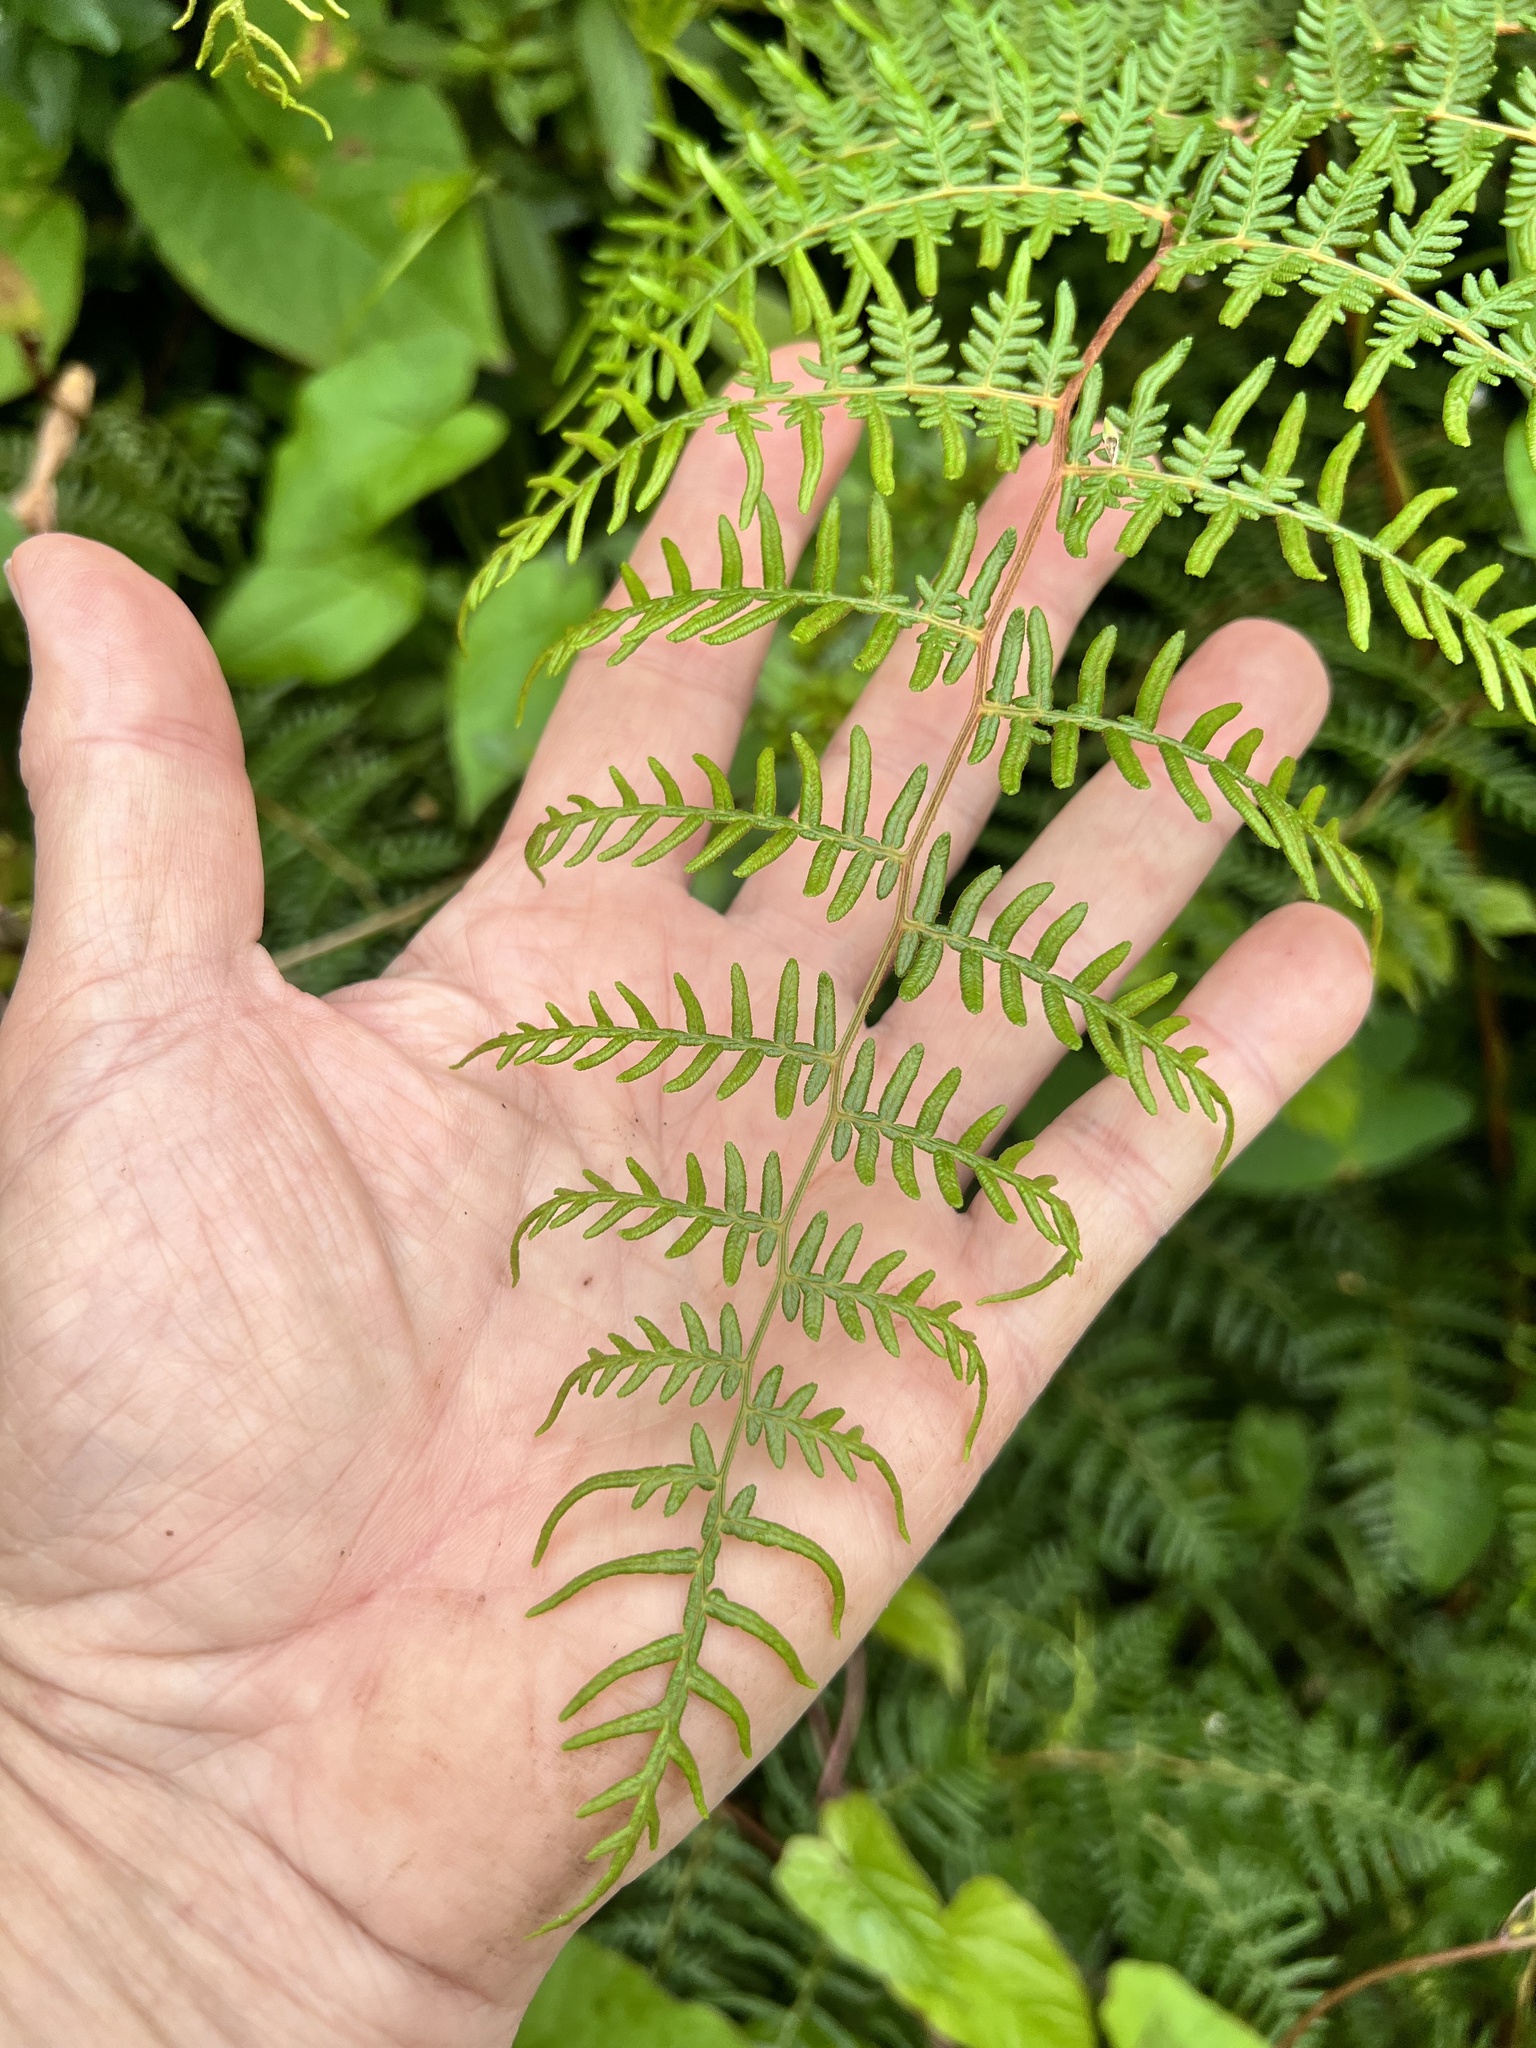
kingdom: Plantae
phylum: Tracheophyta
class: Polypodiopsida
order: Polypodiales
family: Dennstaedtiaceae
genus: Pteridium
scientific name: Pteridium esculentum
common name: Bracken fern
